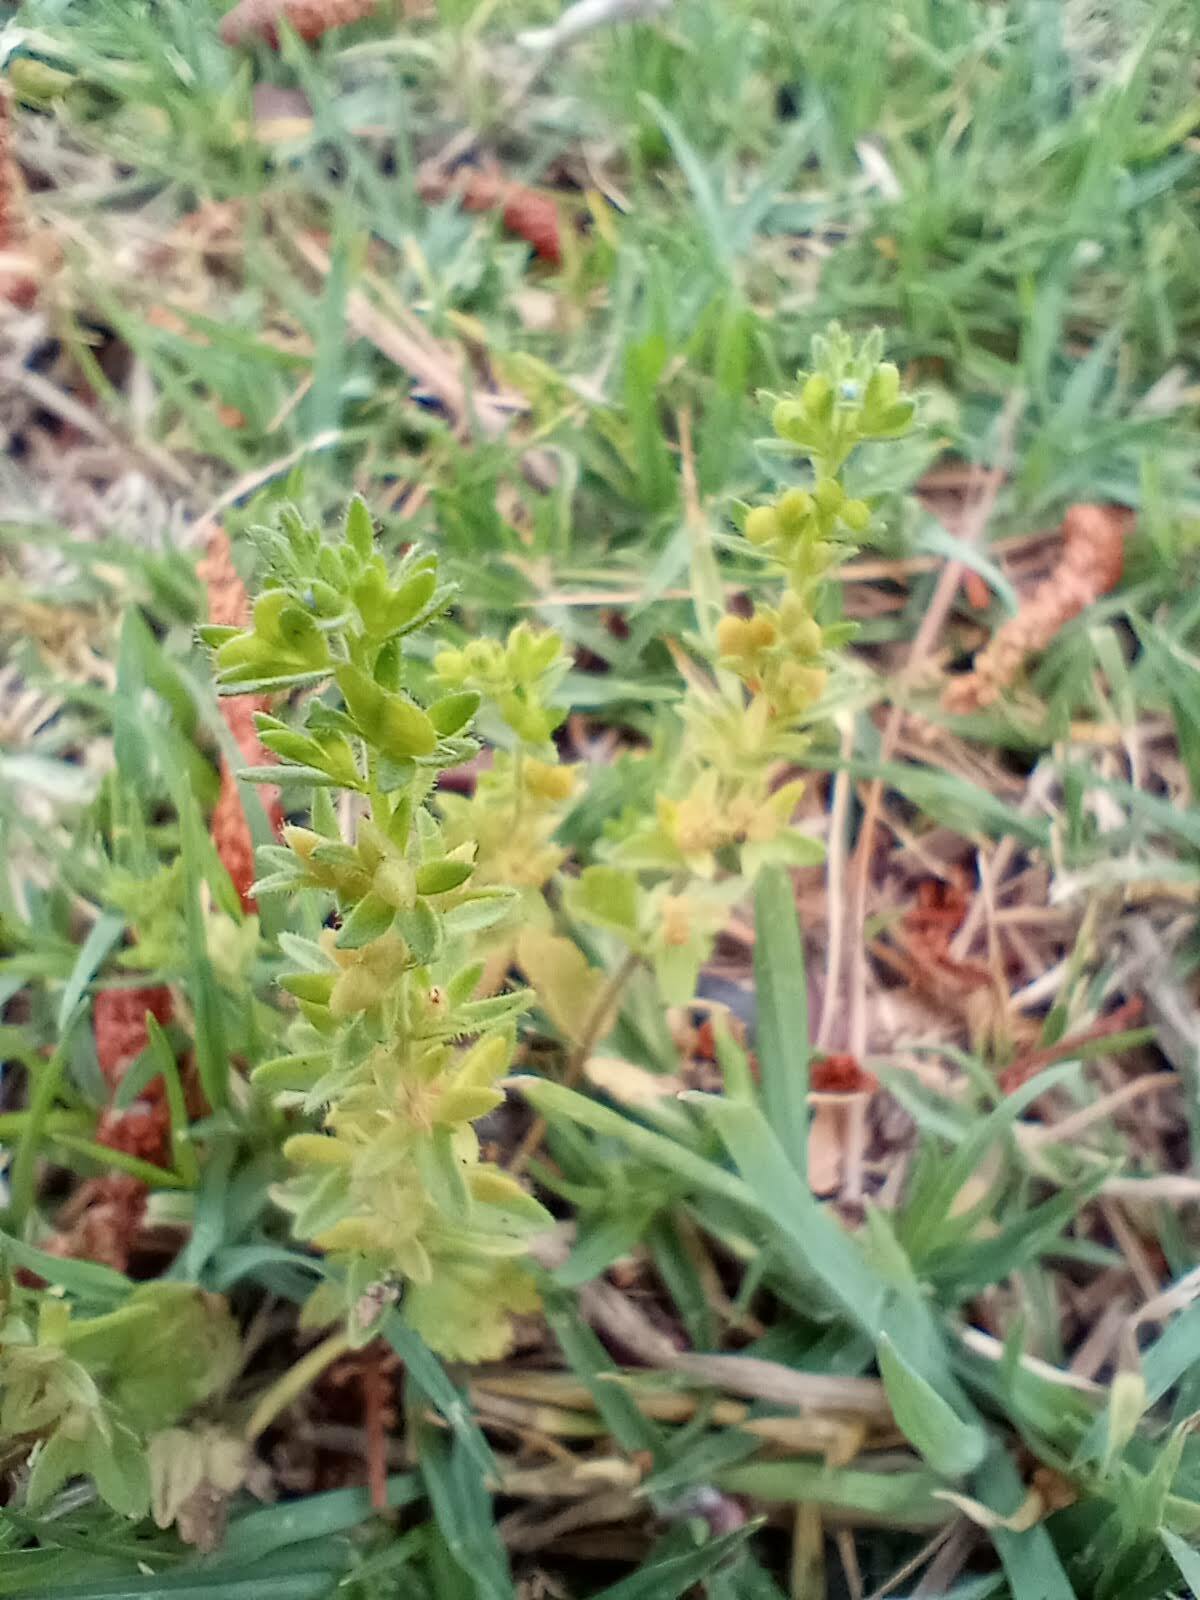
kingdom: Plantae
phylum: Tracheophyta
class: Magnoliopsida
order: Lamiales
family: Plantaginaceae
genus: Veronica
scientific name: Veronica arvensis
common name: Corn speedwell
